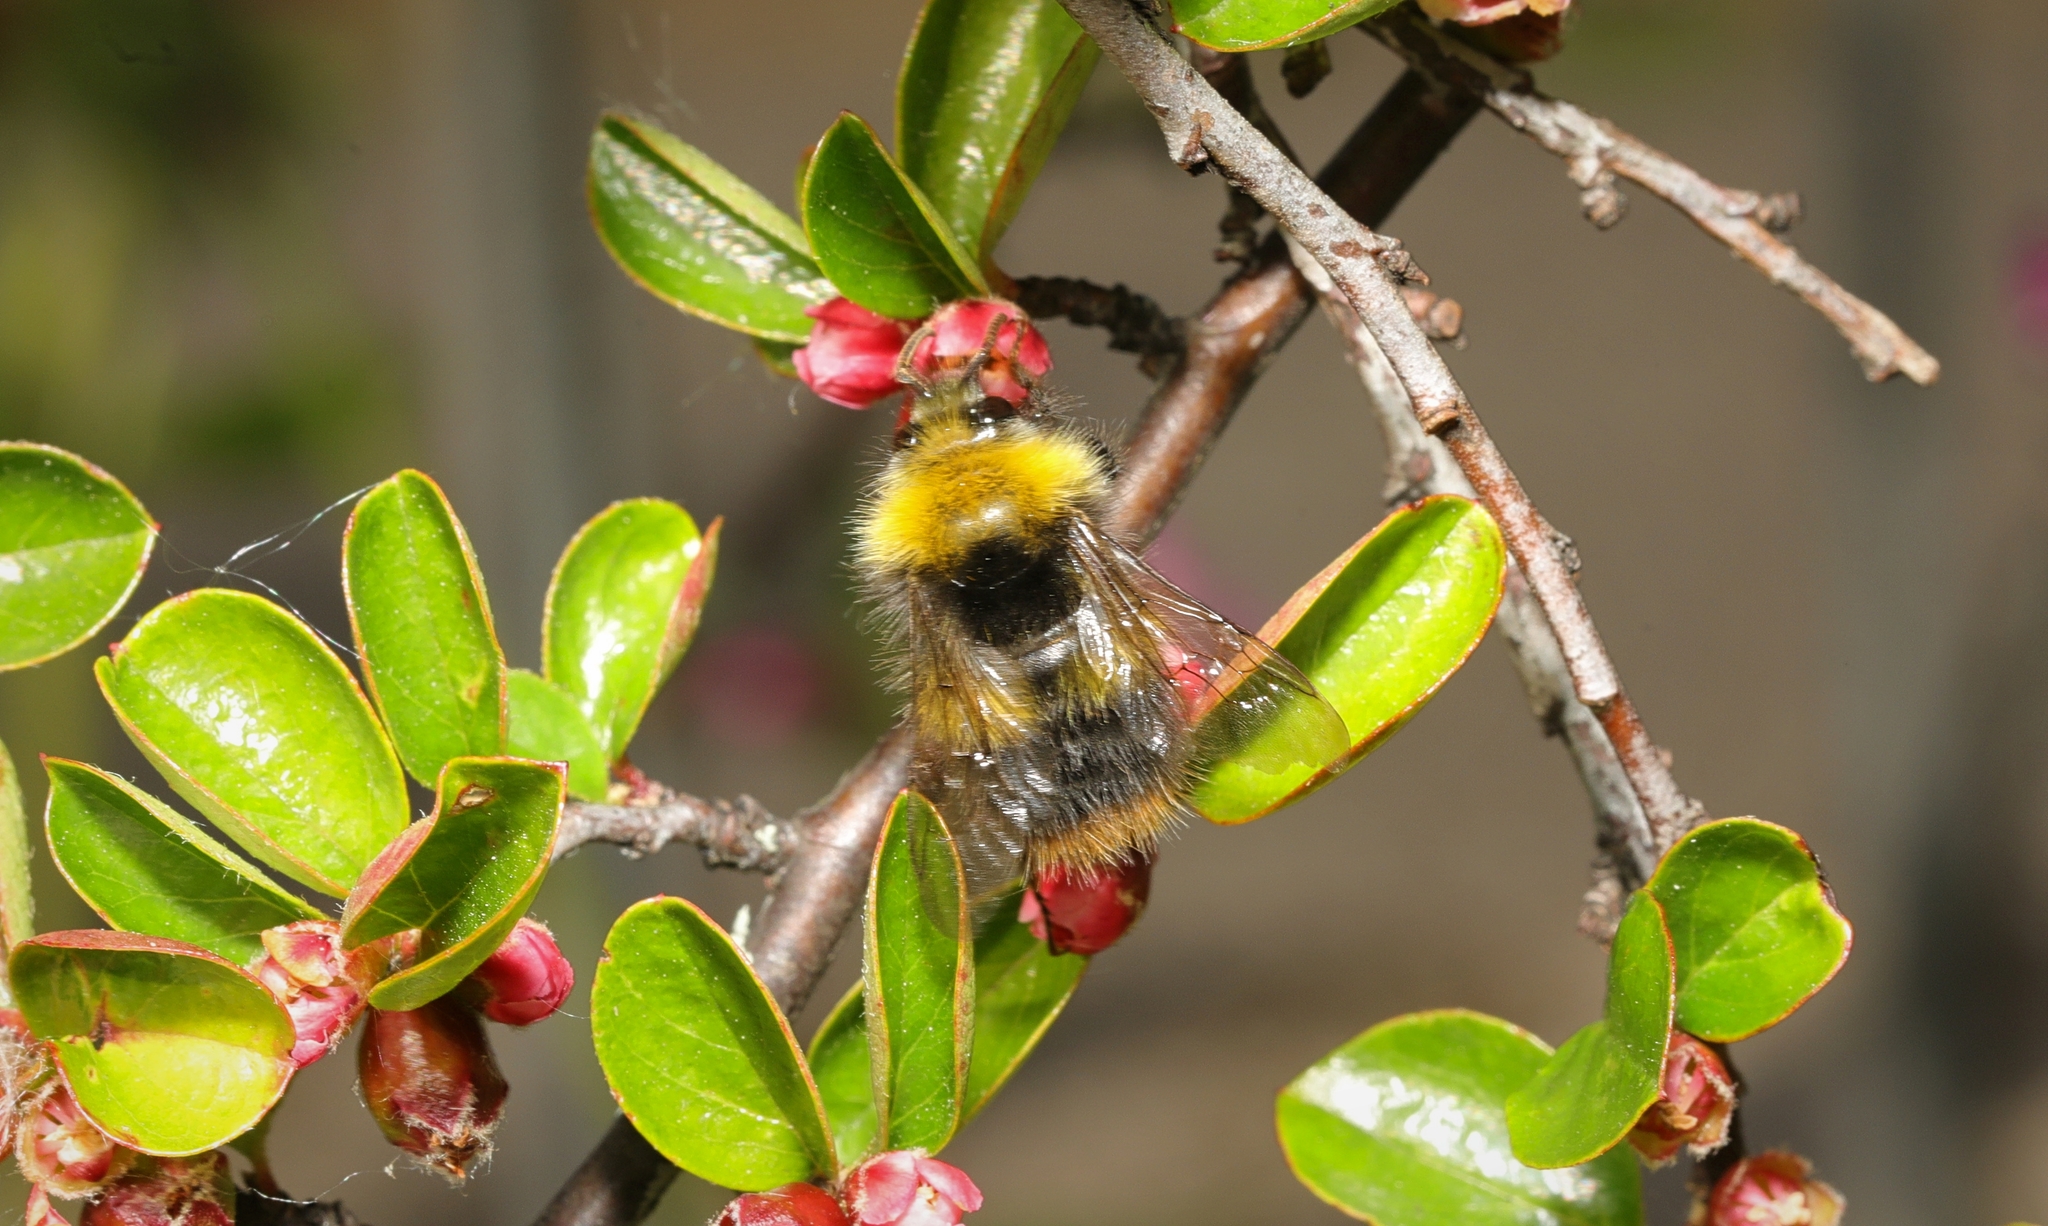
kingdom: Animalia
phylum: Arthropoda
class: Insecta
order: Hymenoptera
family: Apidae
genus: Bombus
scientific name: Bombus pratorum
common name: Early humble-bee
